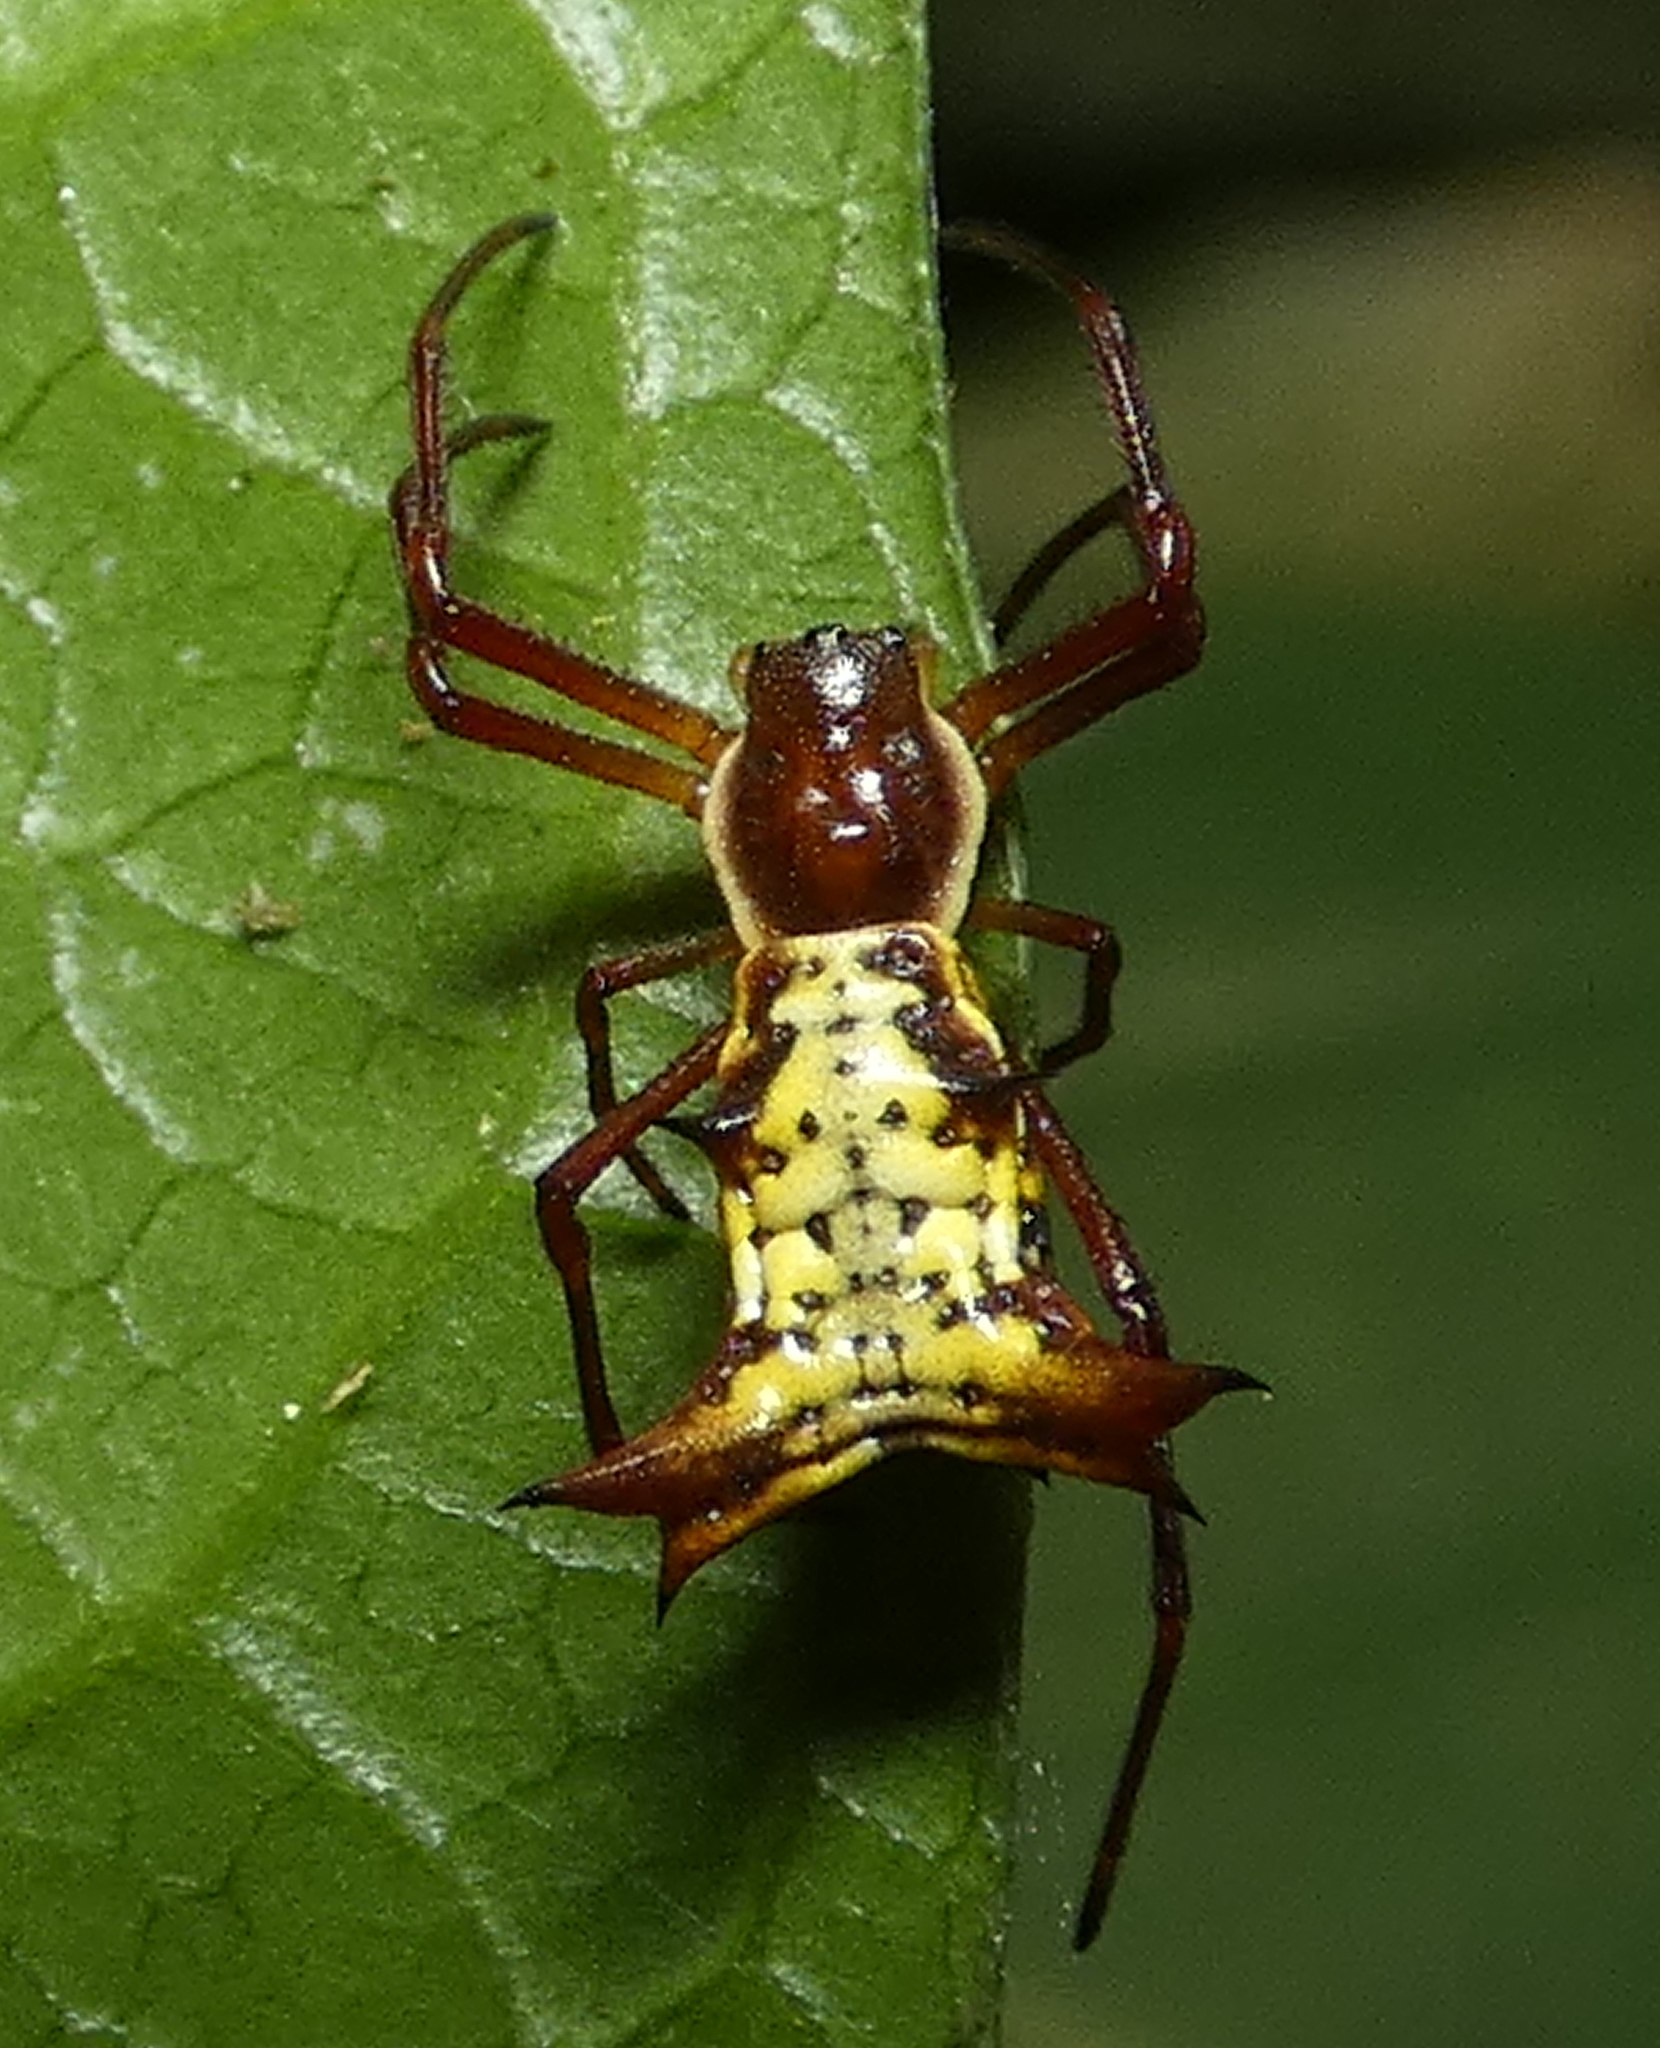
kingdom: Animalia
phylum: Arthropoda
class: Arachnida
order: Araneae
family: Araneidae
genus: Micrathena
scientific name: Micrathena fissispina
